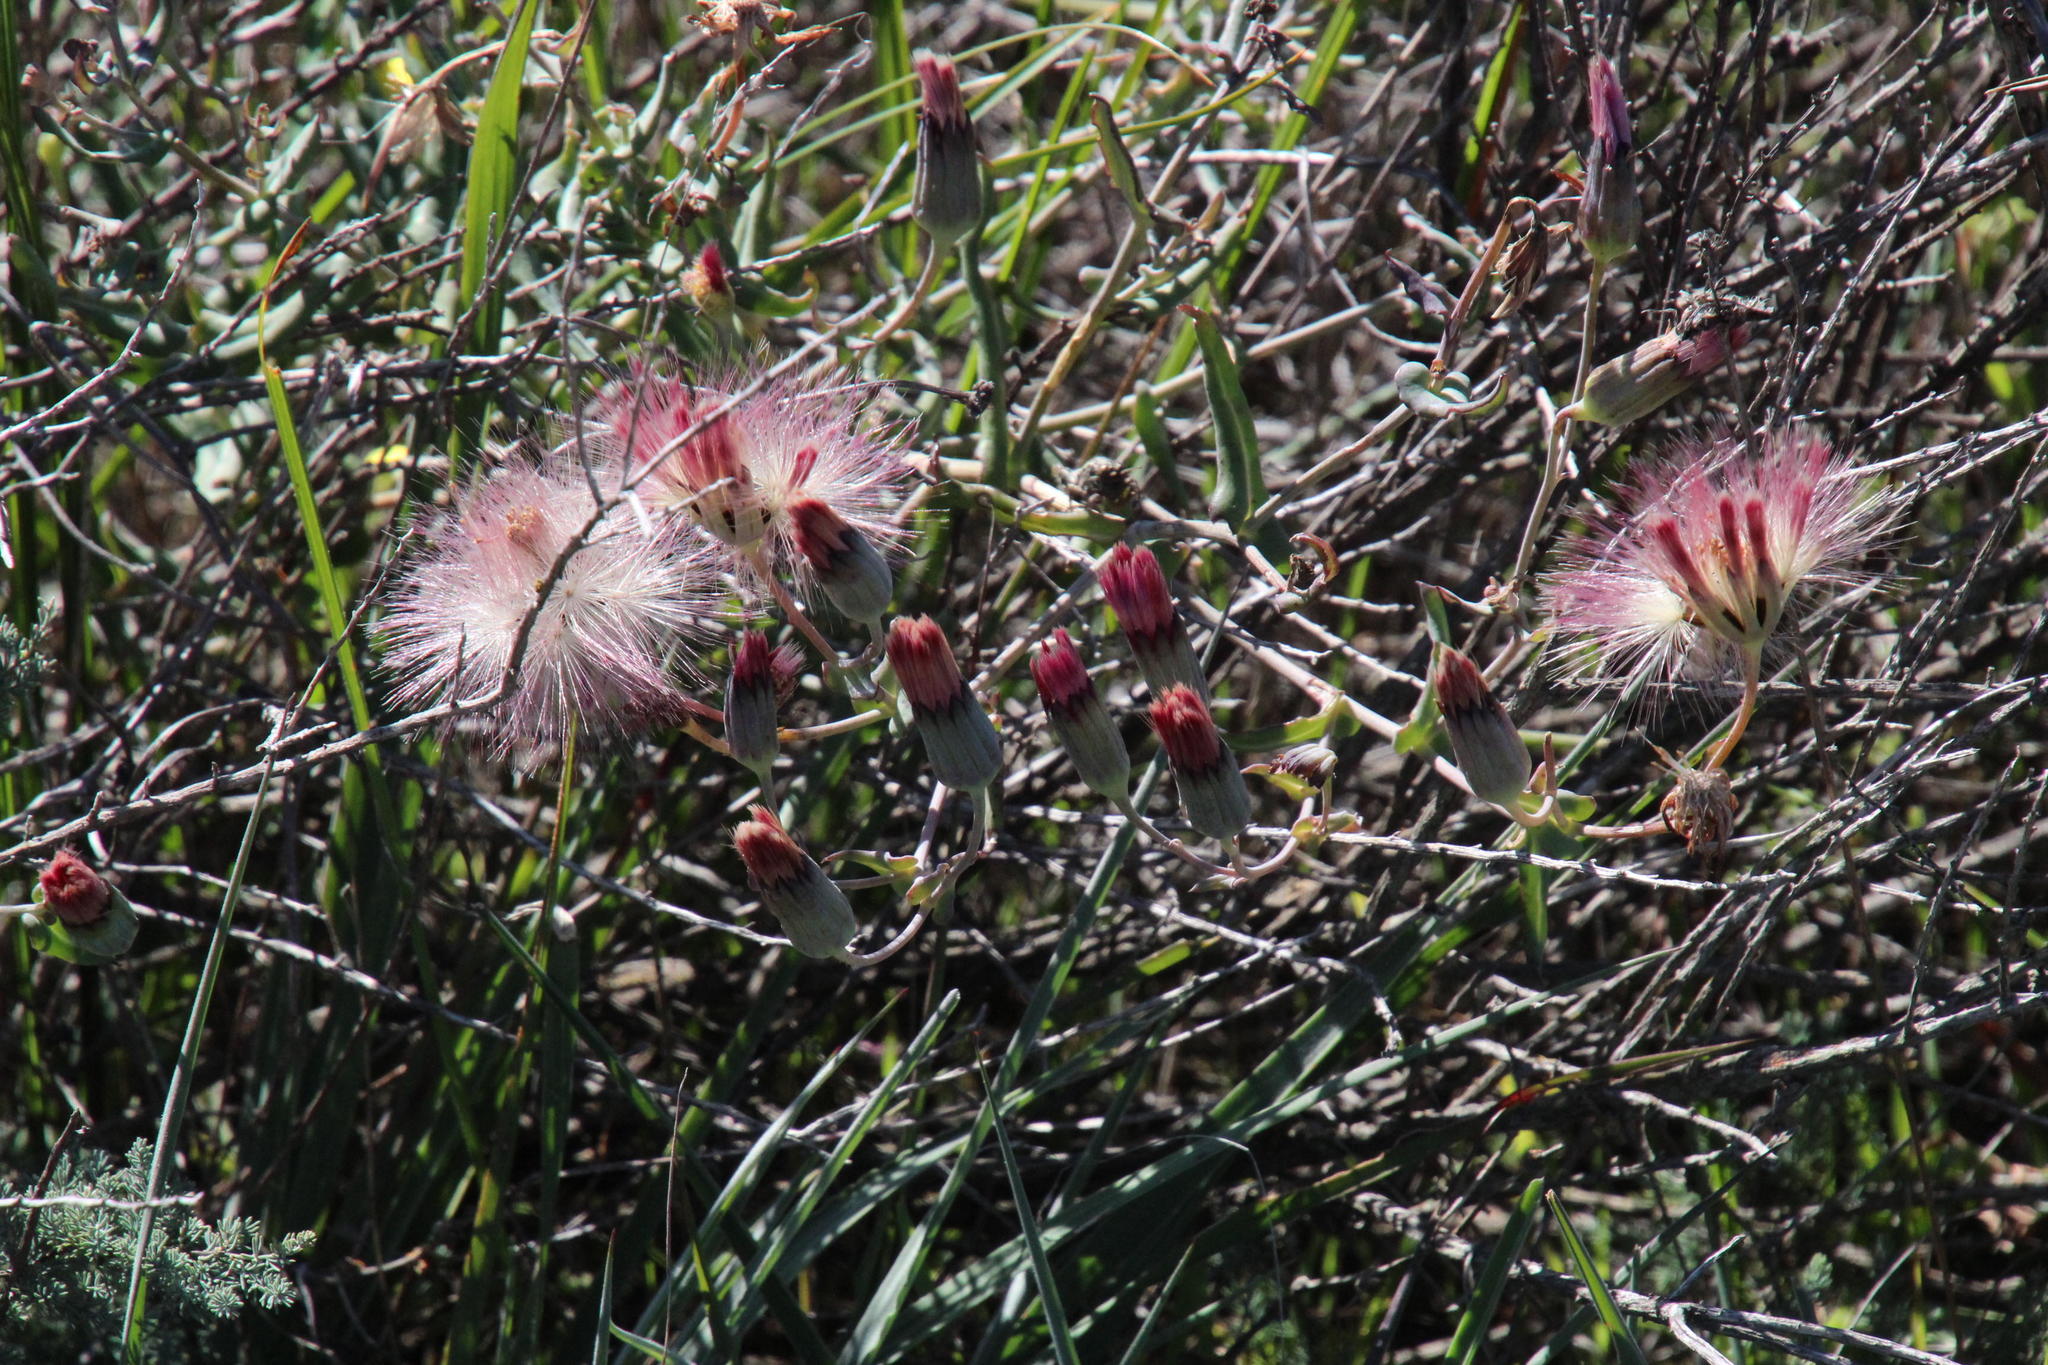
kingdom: Plantae
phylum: Tracheophyta
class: Magnoliopsida
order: Asterales
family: Asteraceae
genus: Othonna
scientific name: Othonna undulosa
